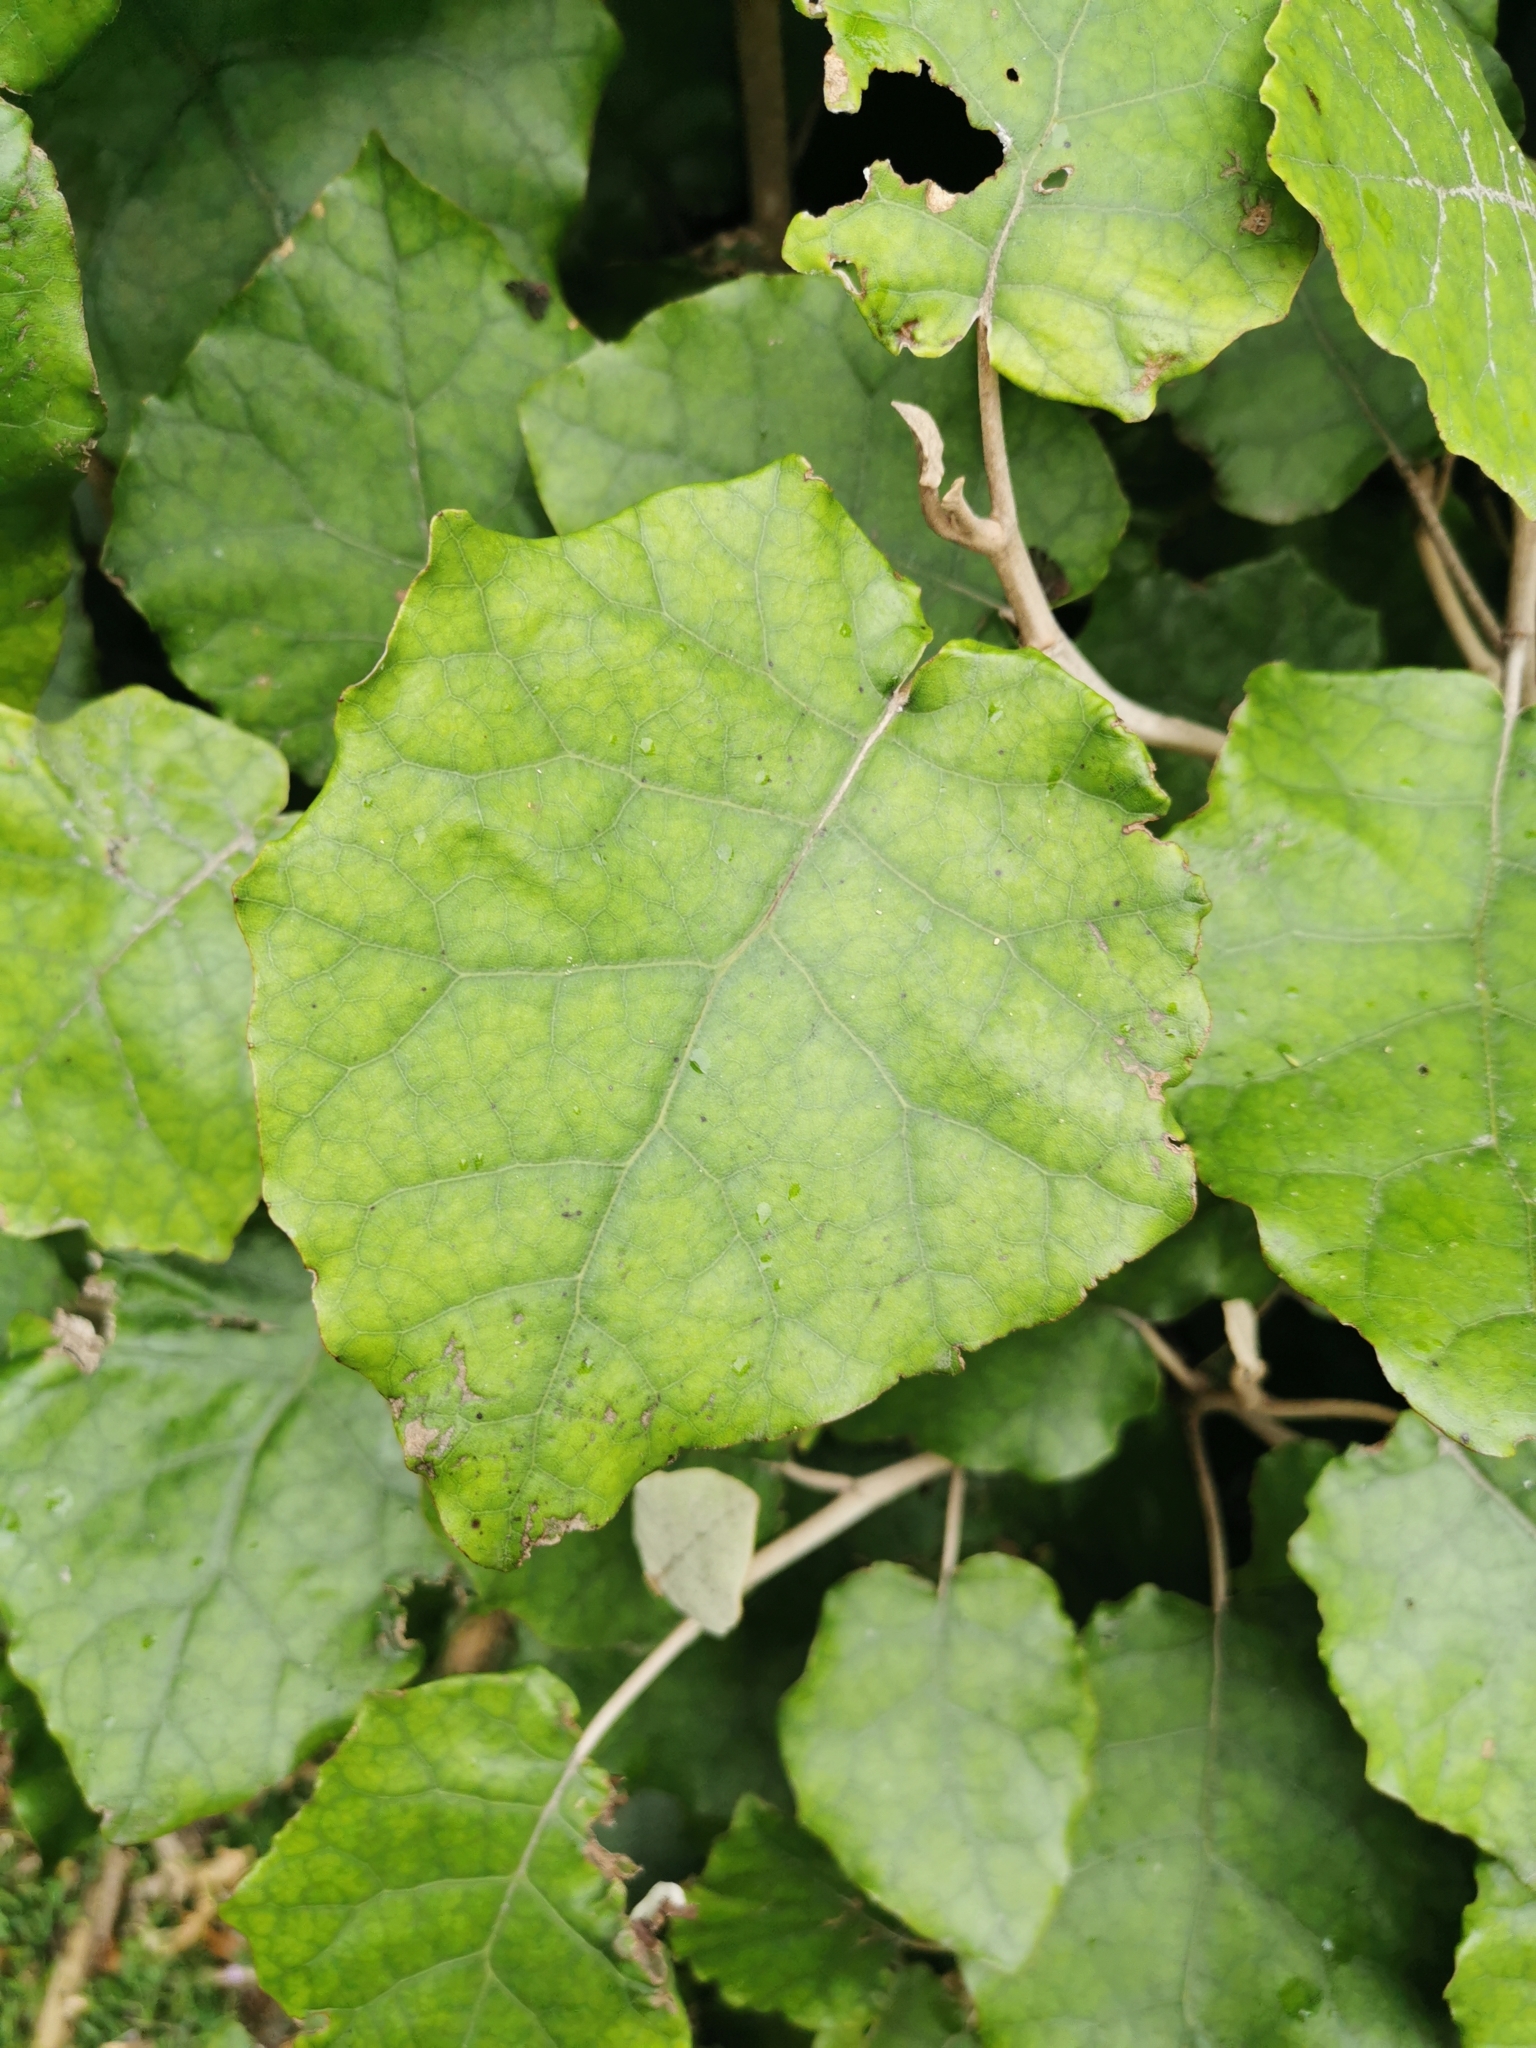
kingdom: Plantae
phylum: Tracheophyta
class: Magnoliopsida
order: Asterales
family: Asteraceae
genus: Brachyglottis
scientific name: Brachyglottis repanda
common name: Hedge ragwort
